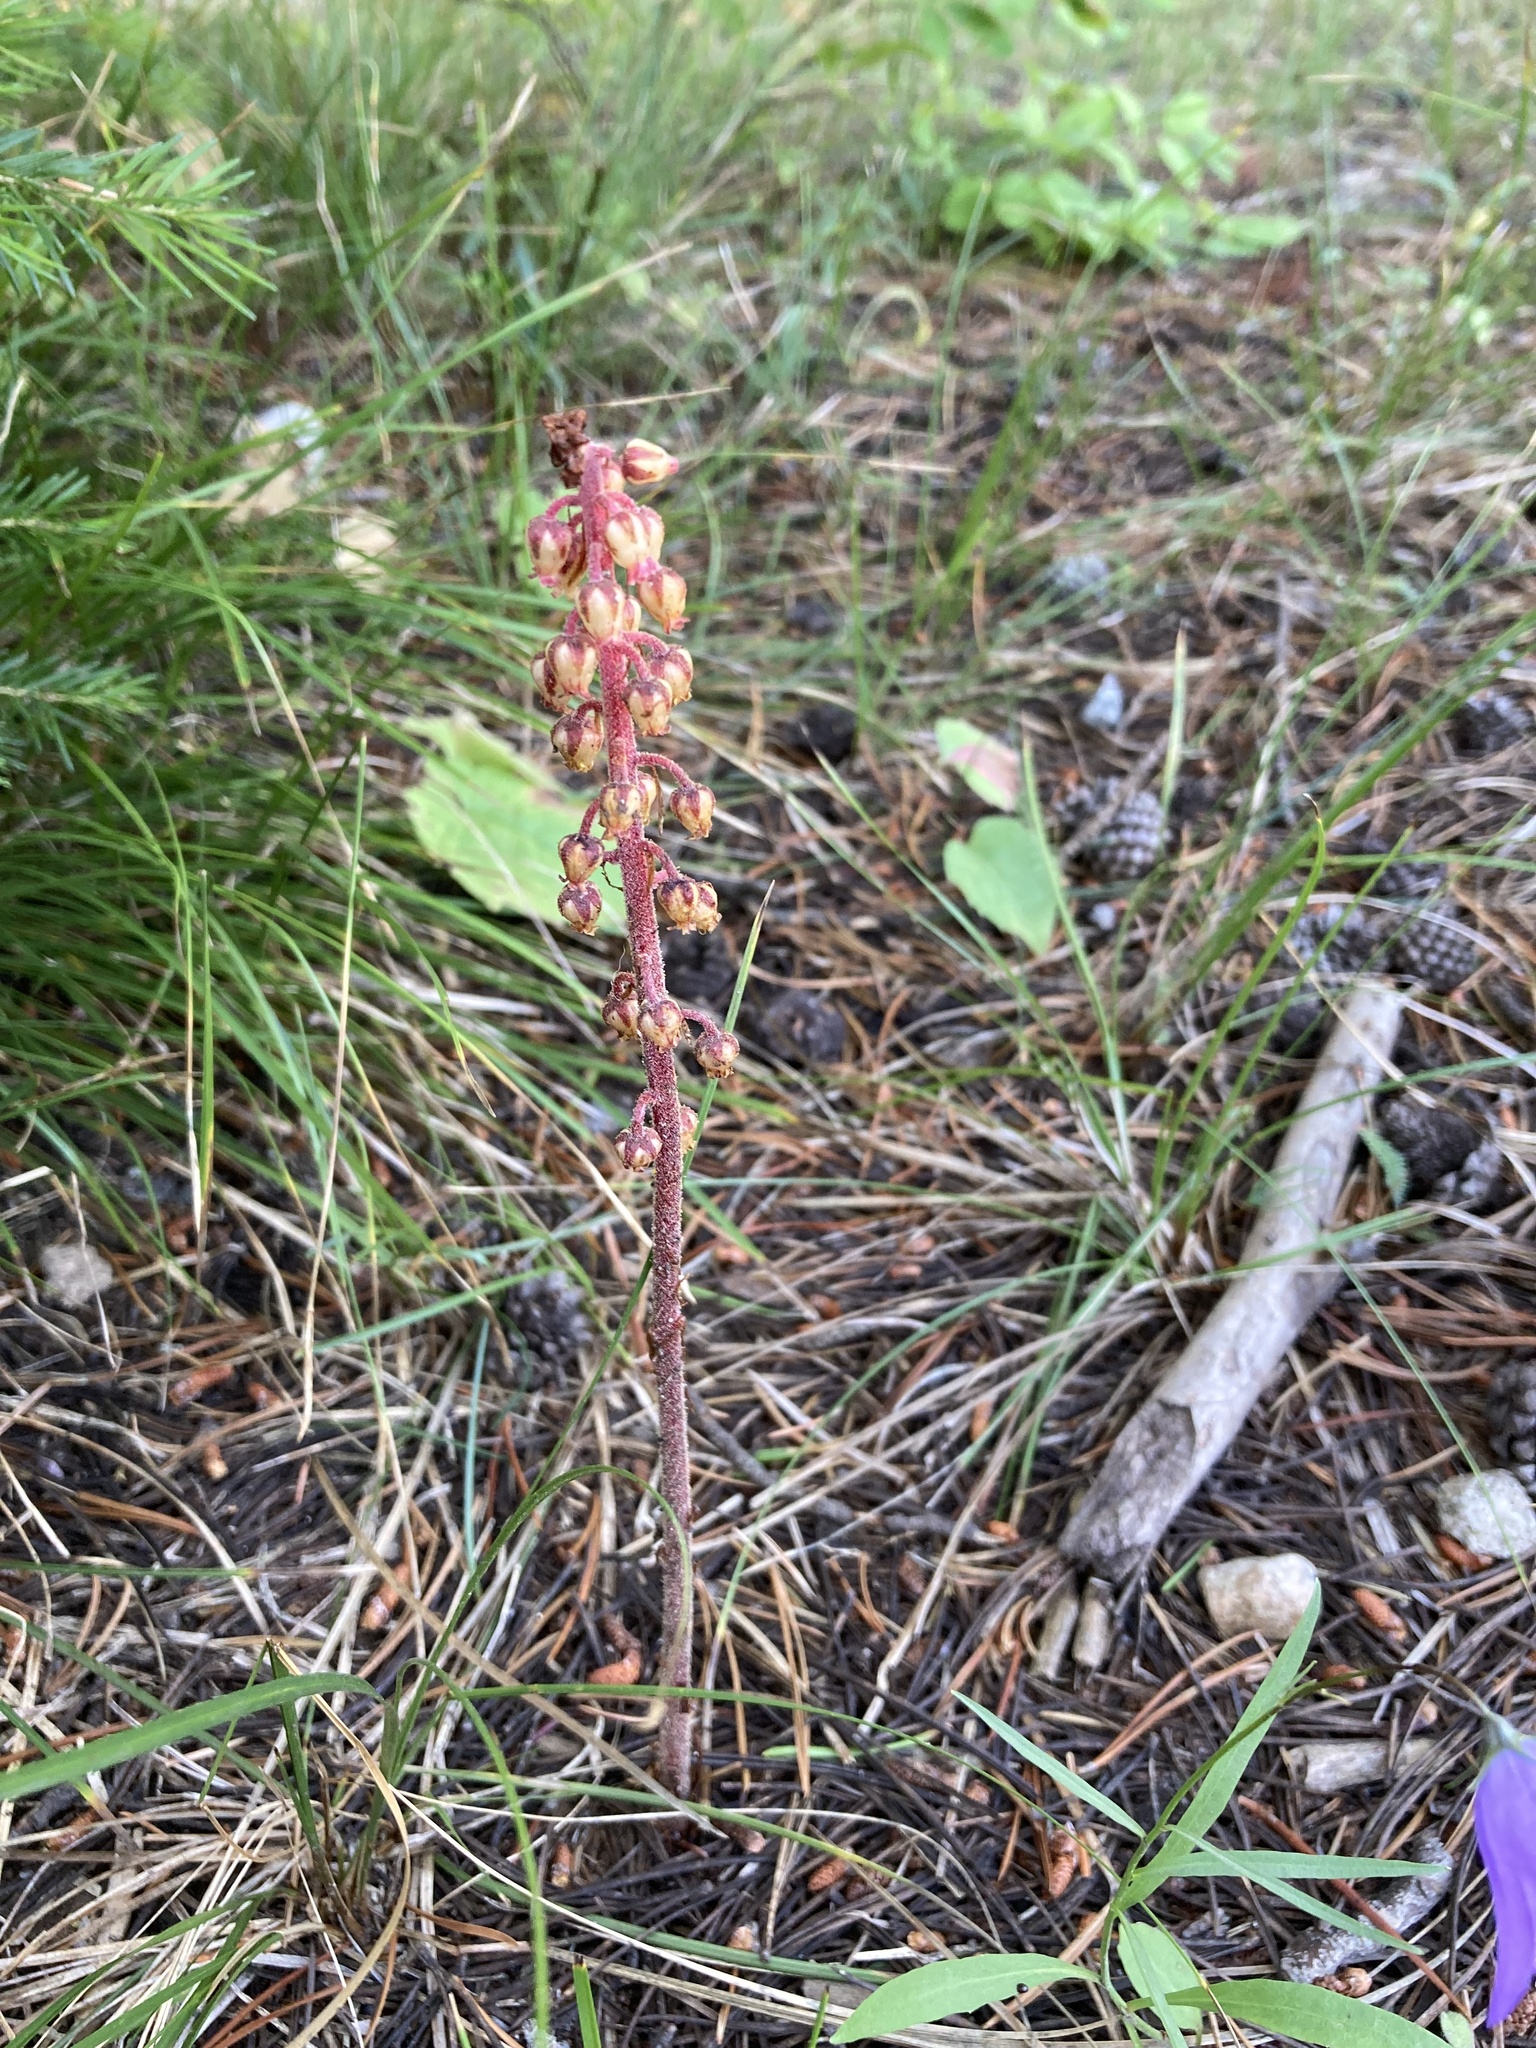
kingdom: Plantae
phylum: Tracheophyta
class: Magnoliopsida
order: Ericales
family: Ericaceae
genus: Pterospora
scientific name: Pterospora andromedea
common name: Giant bird's-nest
